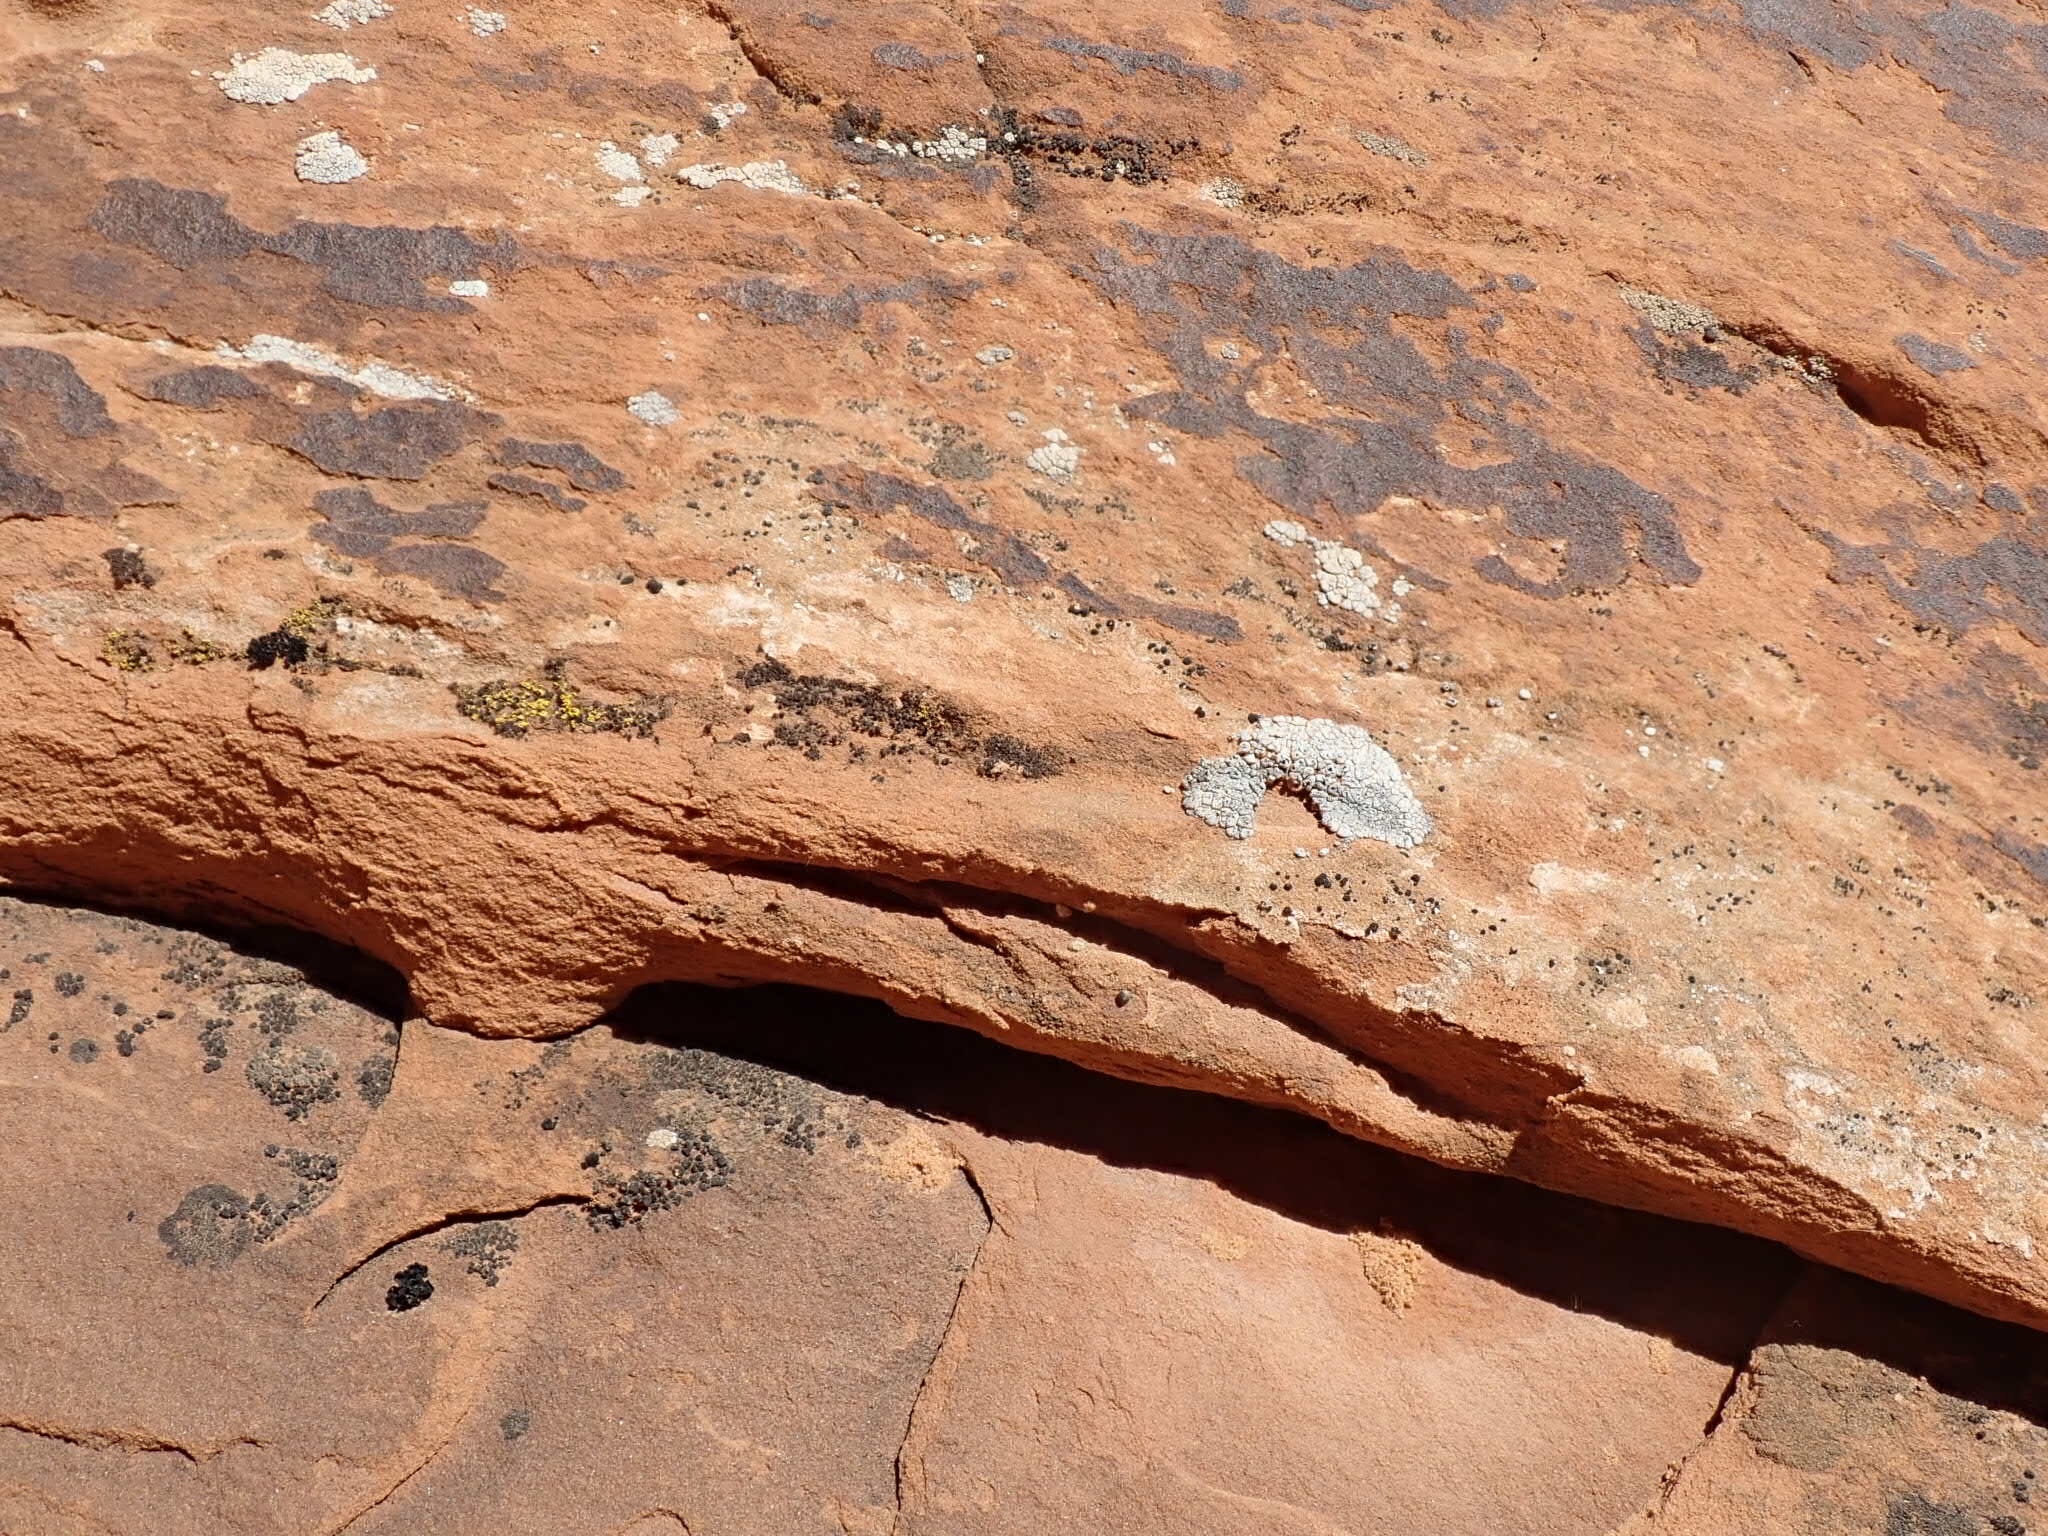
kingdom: Fungi
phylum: Ascomycota
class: Lecanoromycetes
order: Acarosporales
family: Acarosporaceae
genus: Acarospora
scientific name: Acarospora strigata
